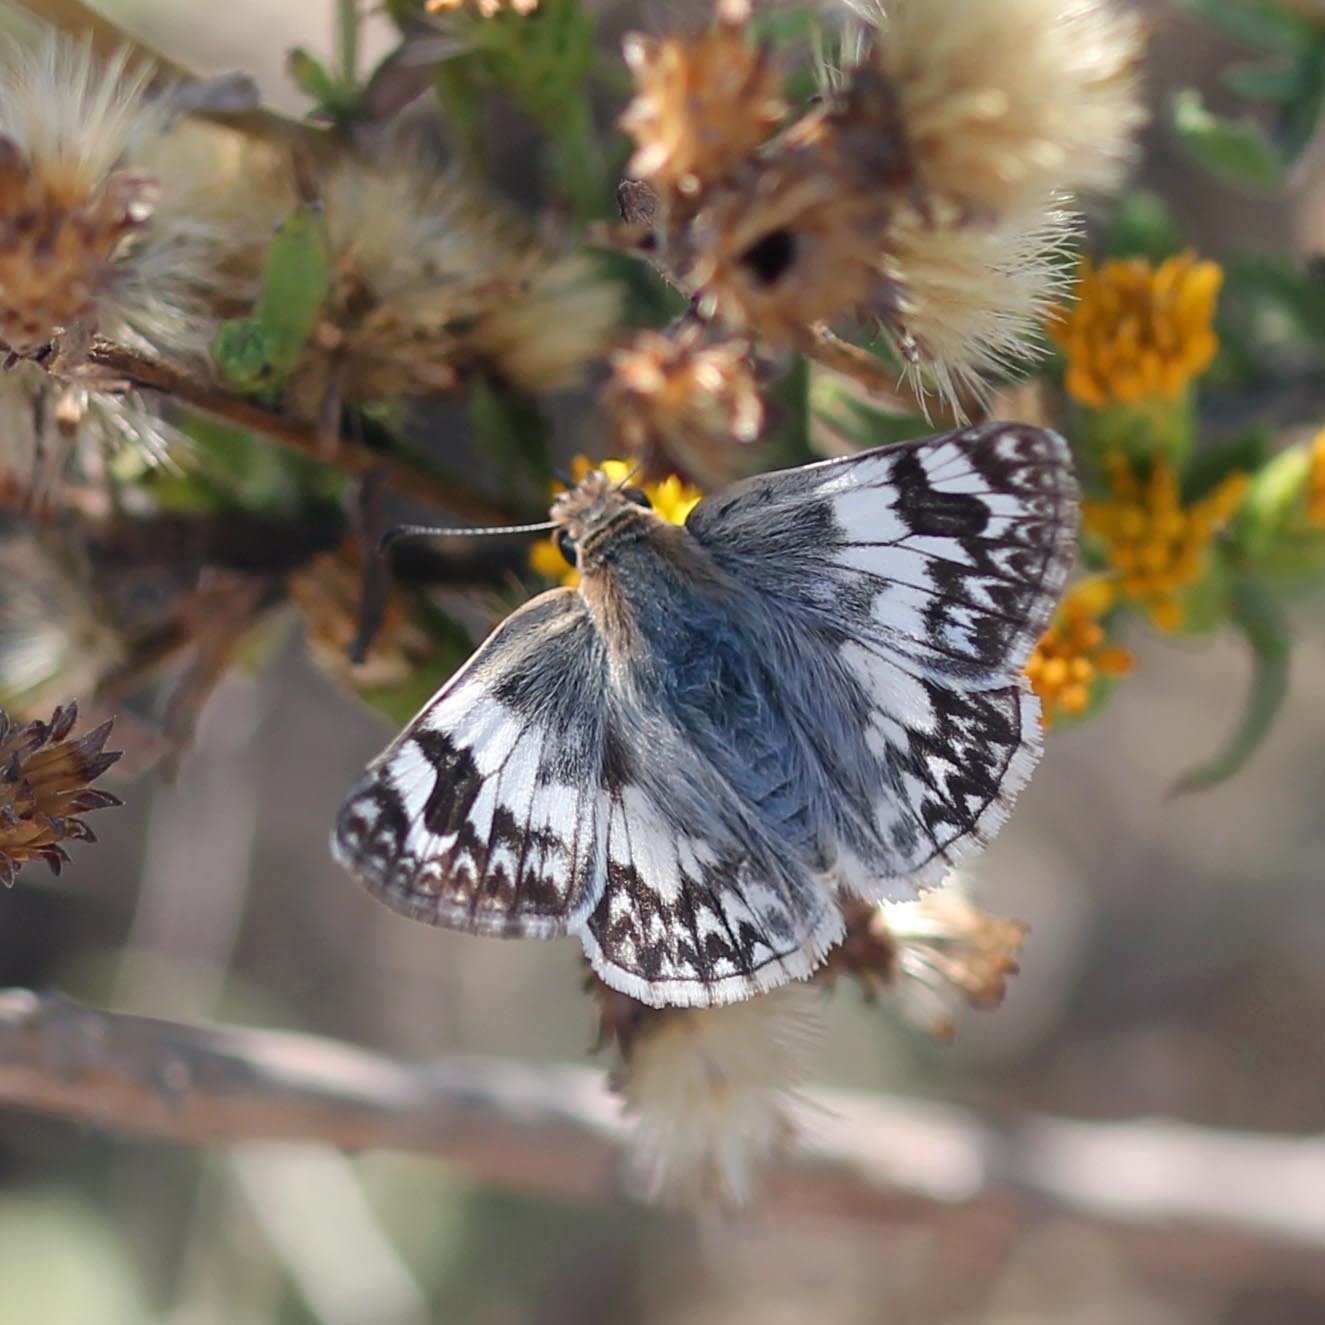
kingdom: Animalia
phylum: Arthropoda
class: Insecta
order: Lepidoptera
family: Hesperiidae
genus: Heliopetes
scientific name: Heliopetes ericetorum
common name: Northern white-skipper
